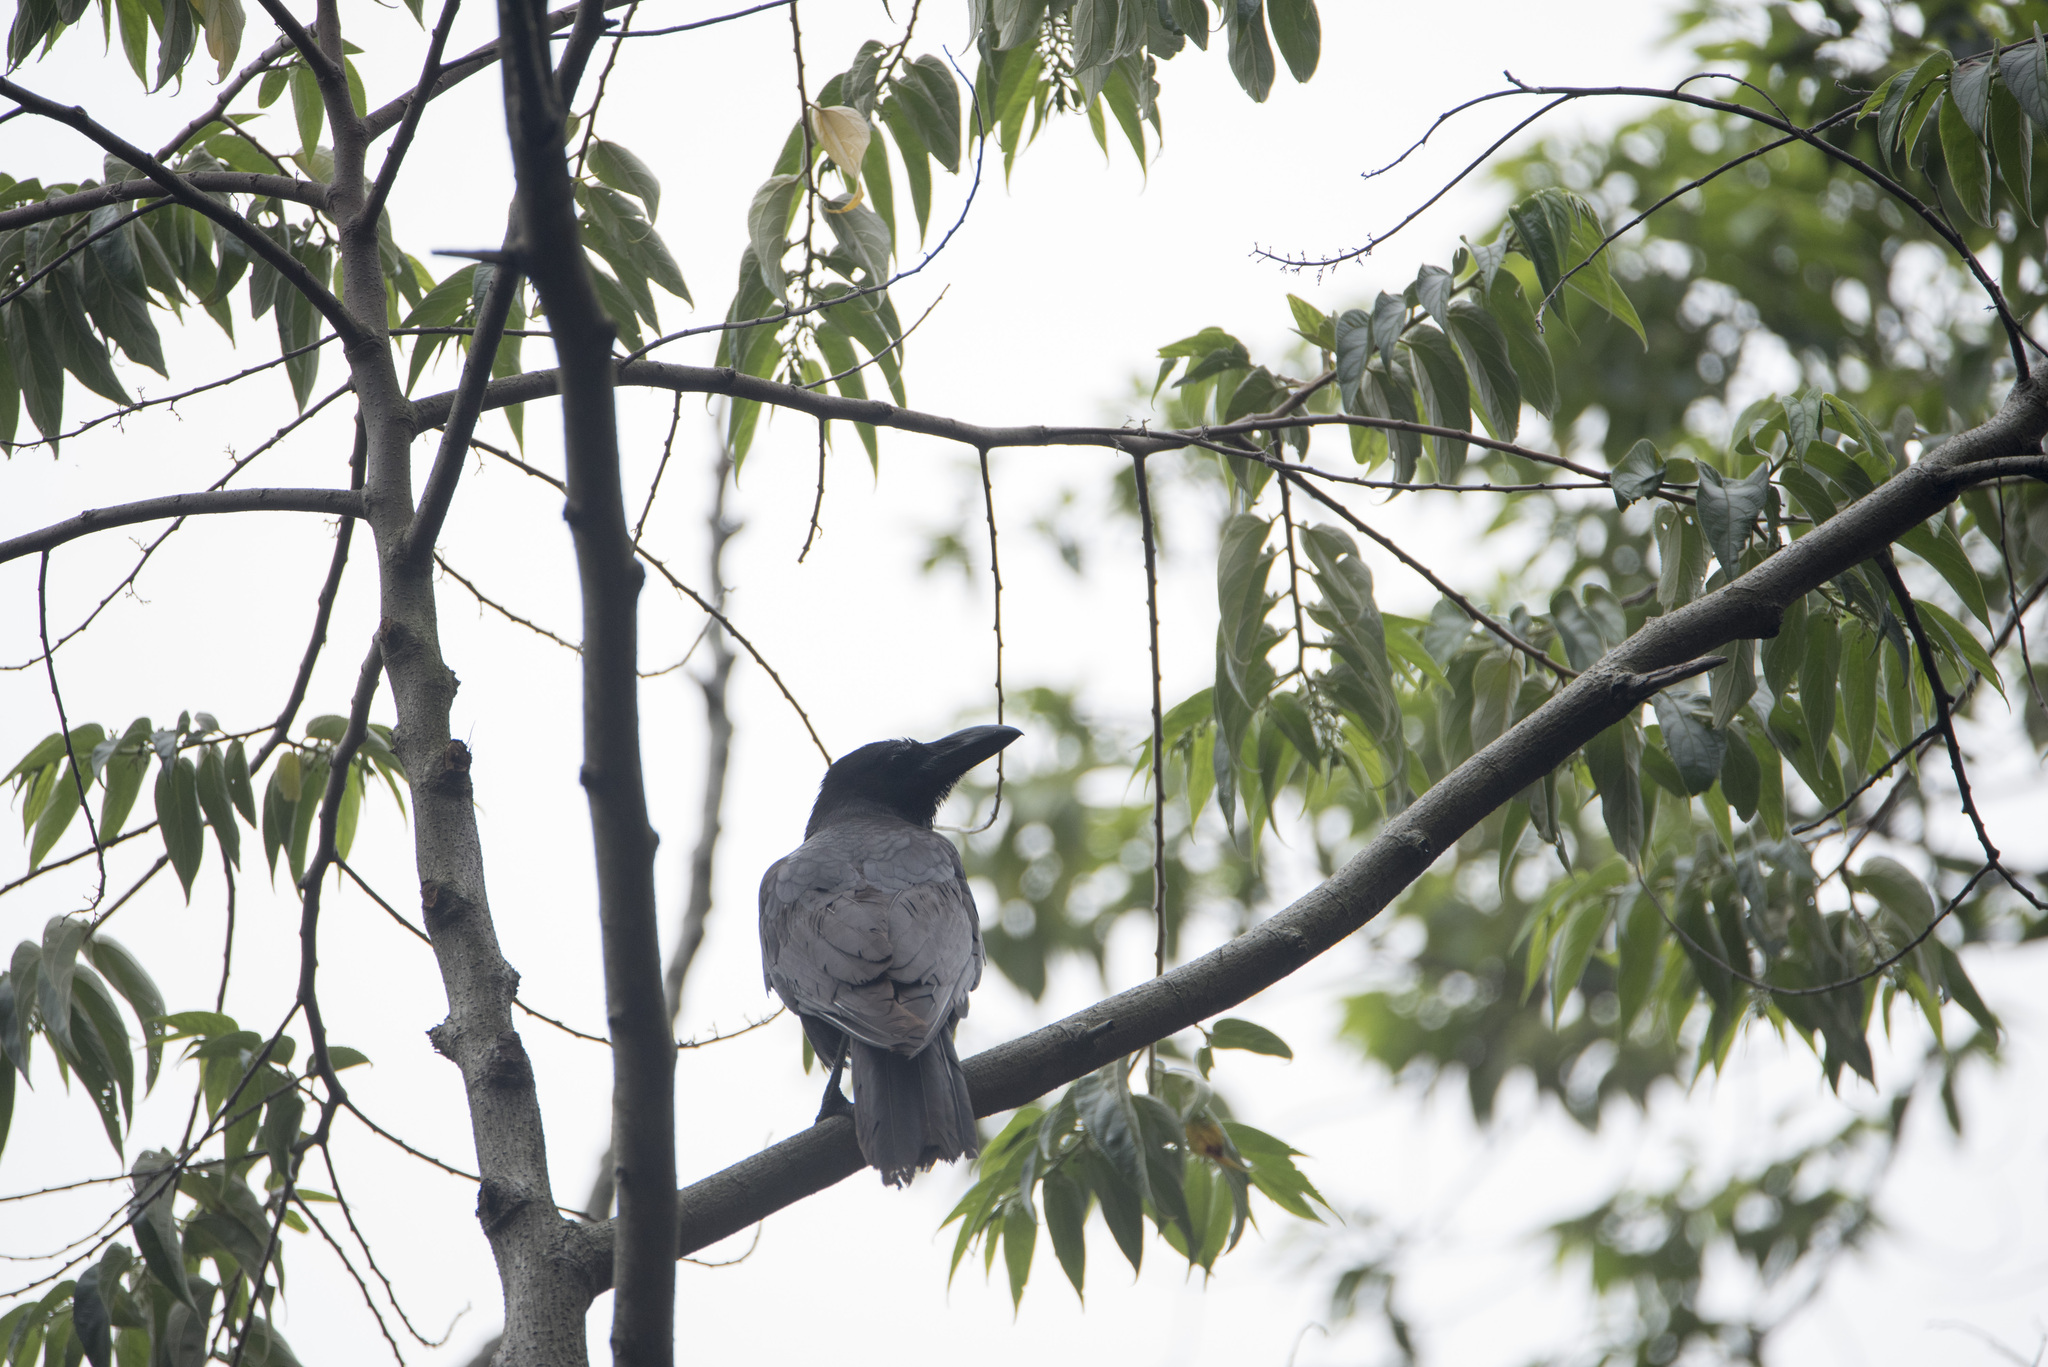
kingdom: Animalia
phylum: Chordata
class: Aves
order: Passeriformes
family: Corvidae
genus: Corvus
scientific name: Corvus macrorhynchos
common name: Large-billed crow
